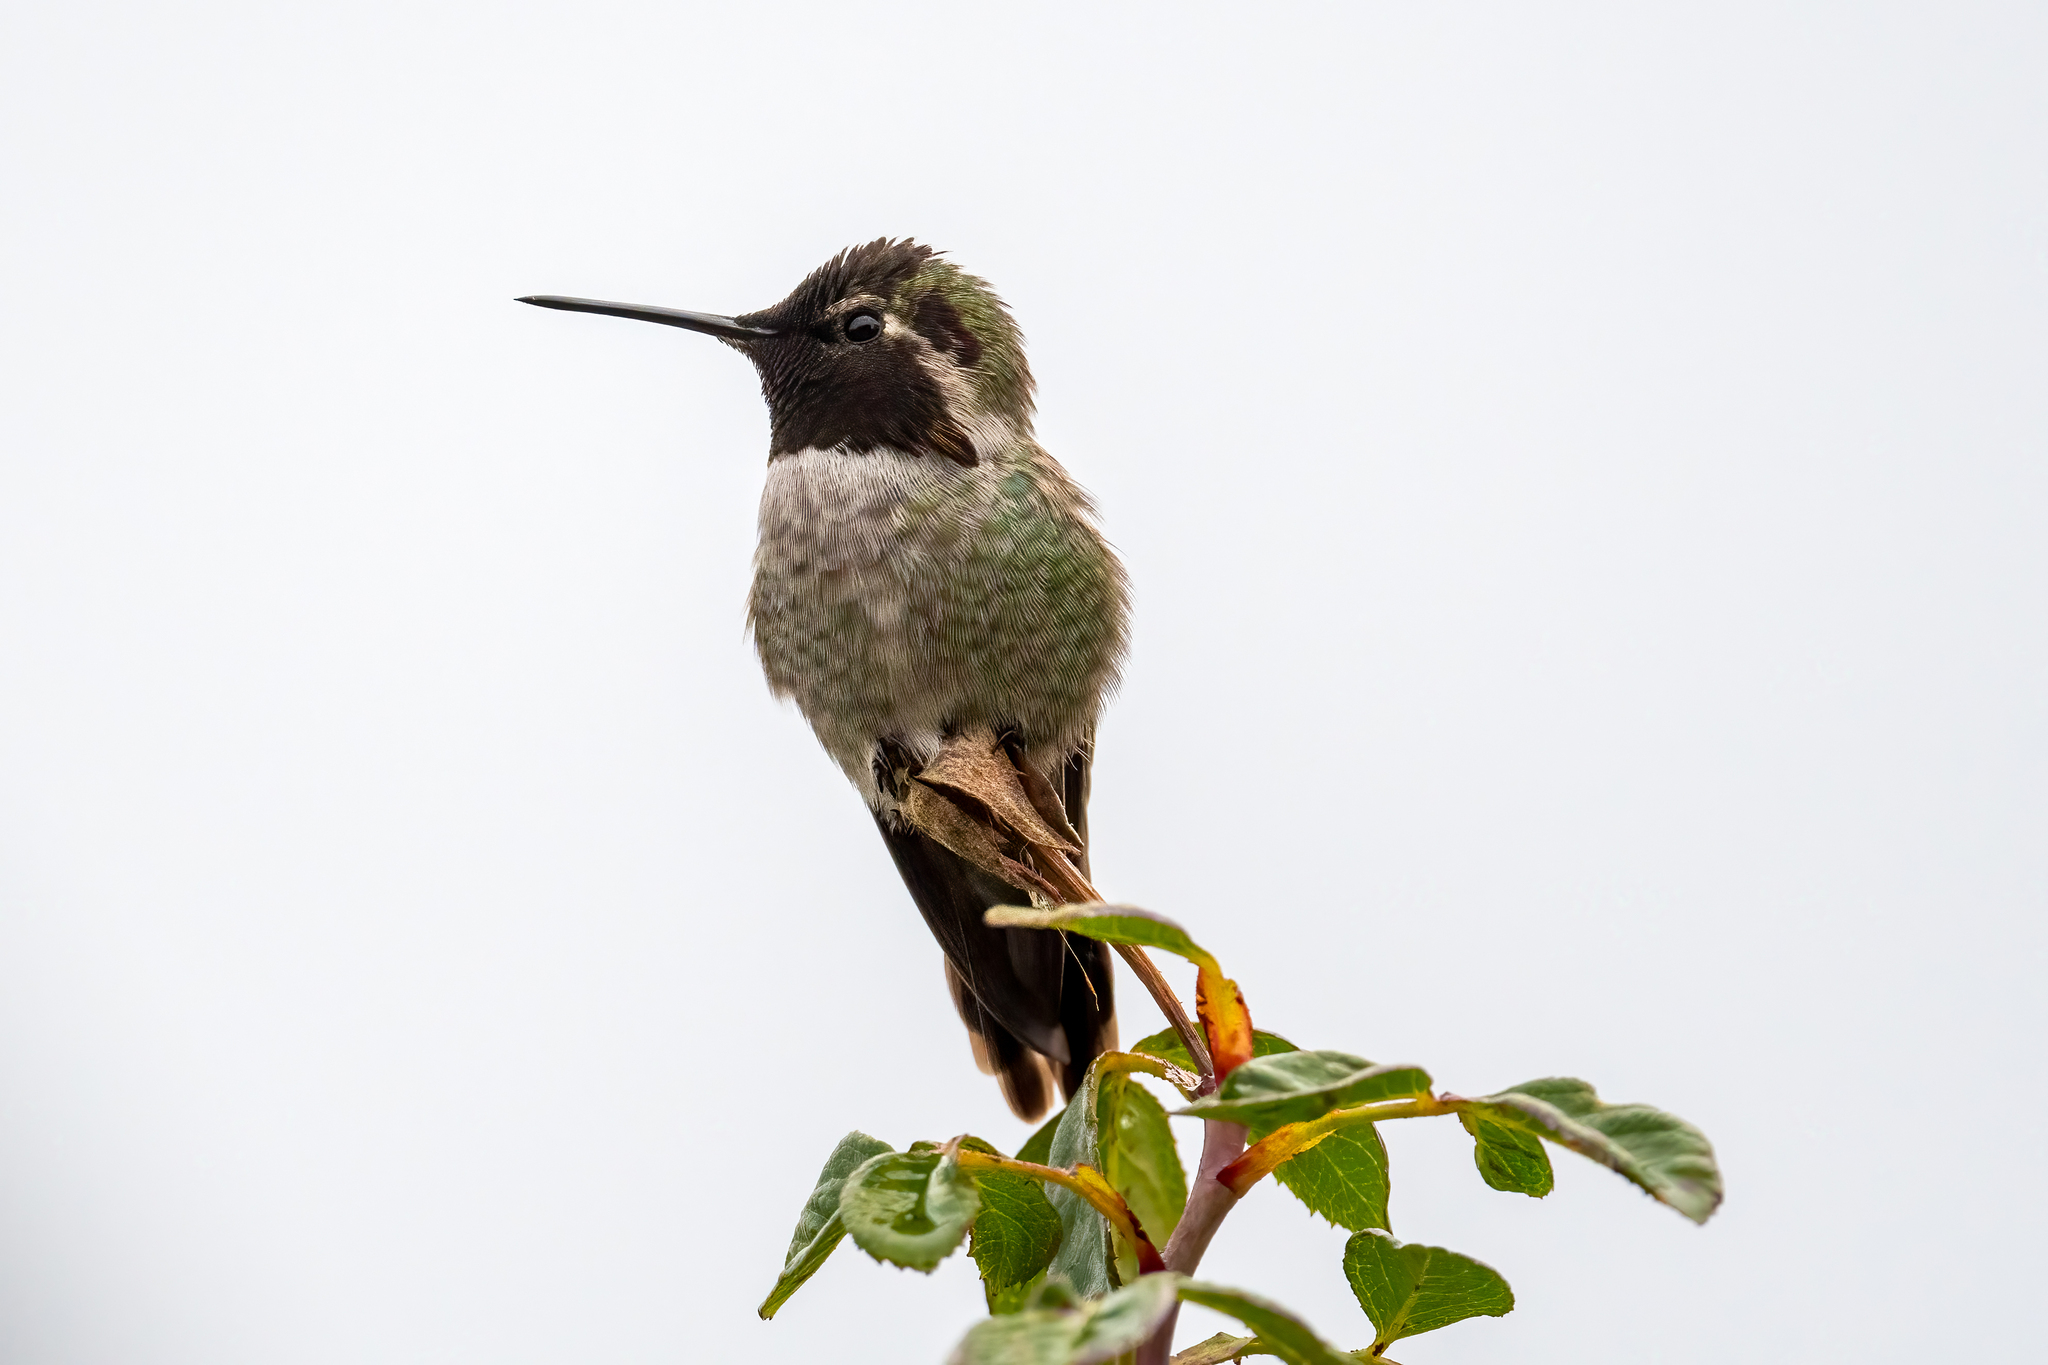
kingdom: Animalia
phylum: Chordata
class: Aves
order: Apodiformes
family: Trochilidae
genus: Calypte
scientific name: Calypte anna
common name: Anna's hummingbird
